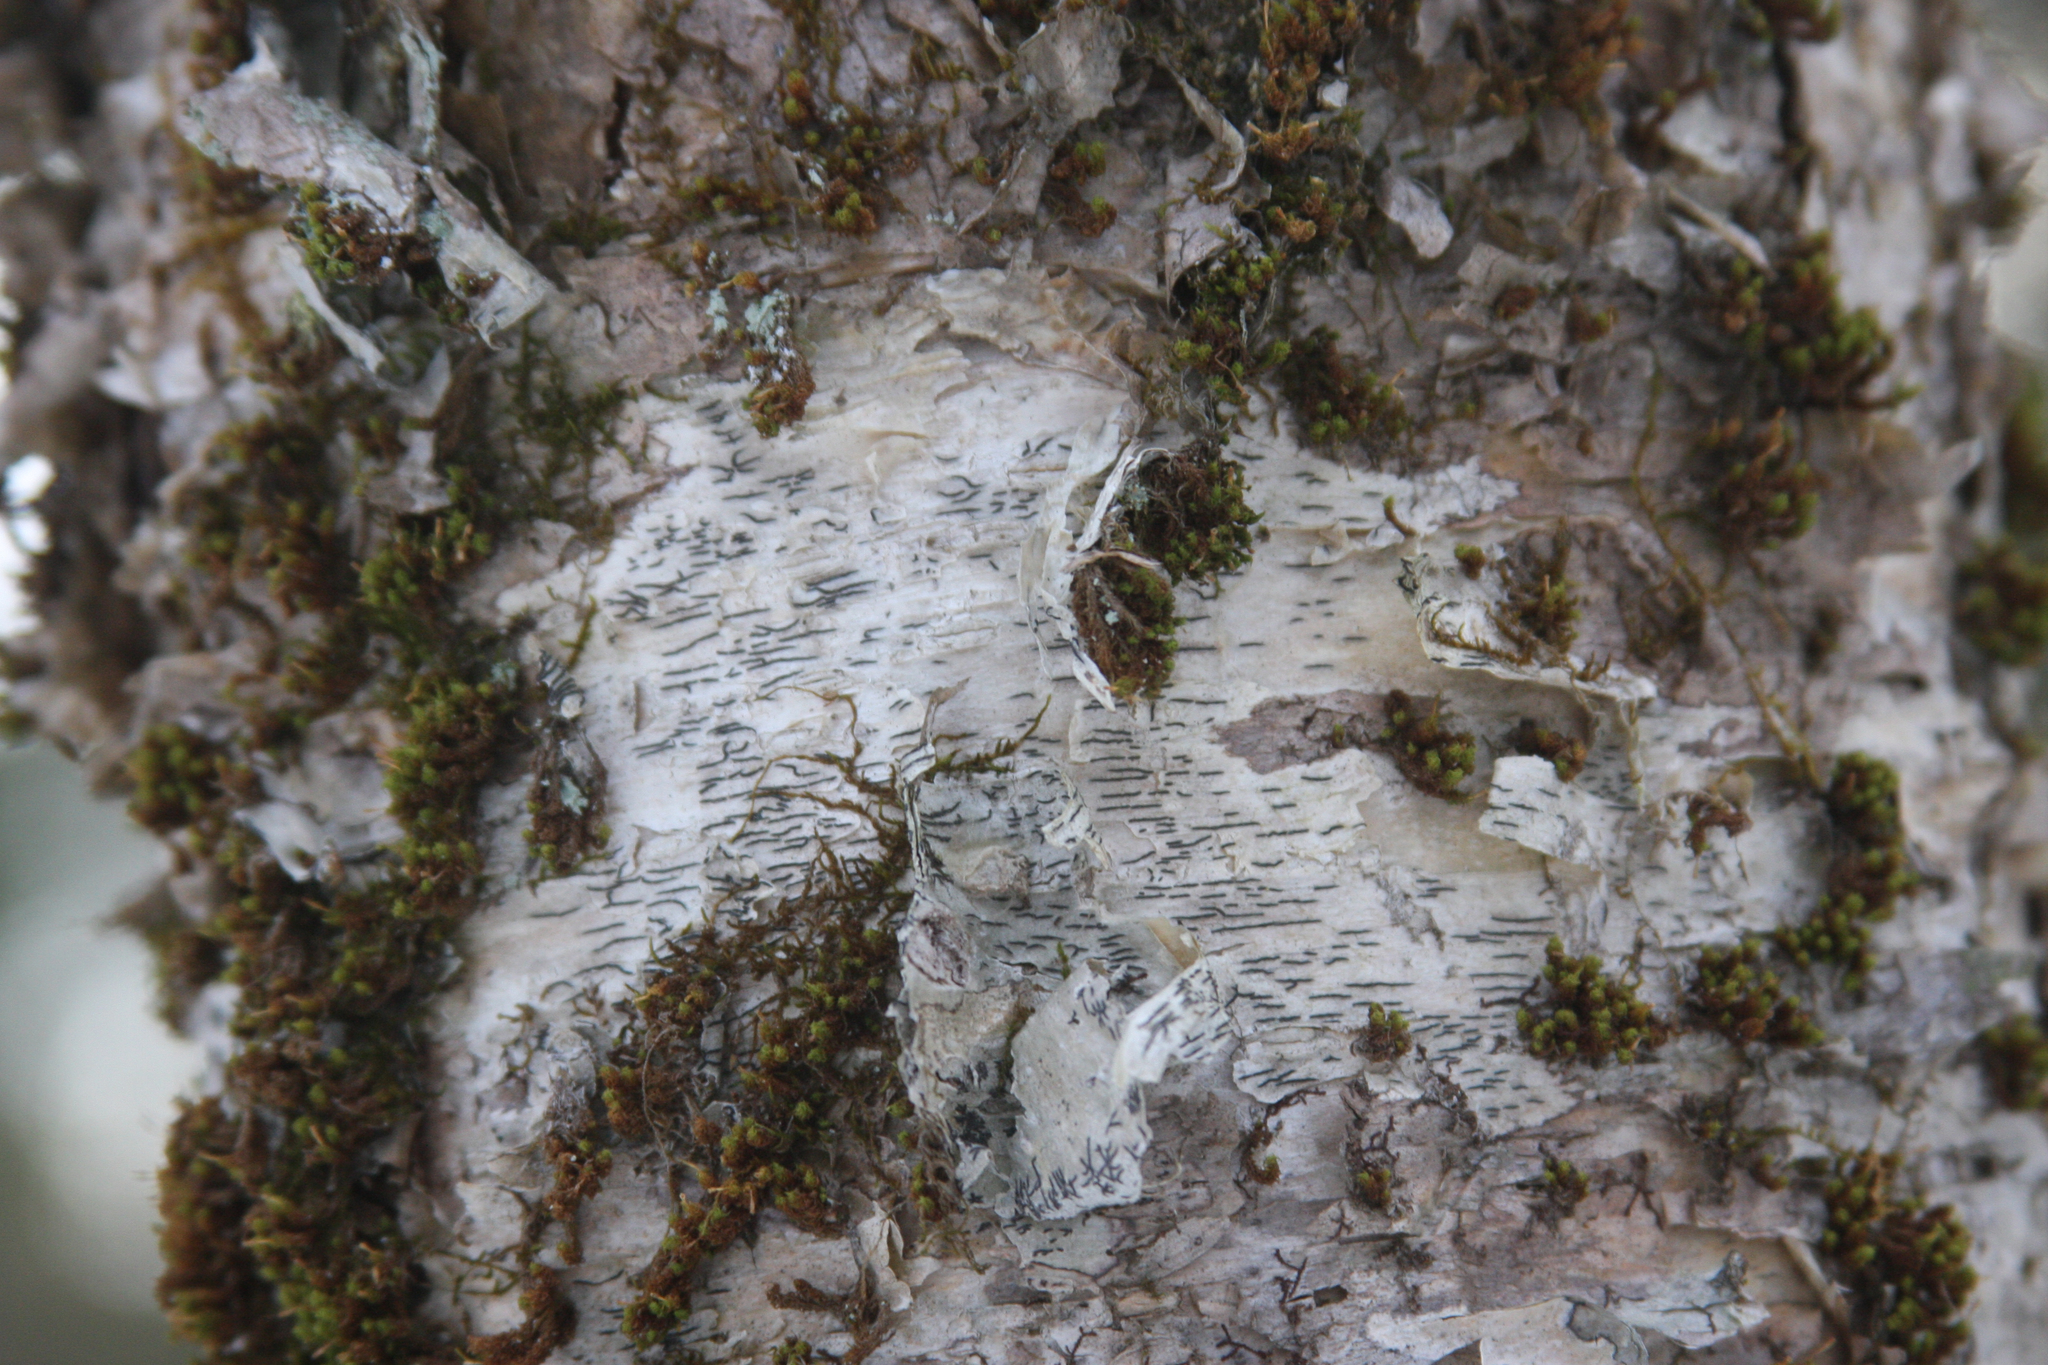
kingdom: Plantae
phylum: Bryophyta
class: Bryopsida
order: Orthotrichales
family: Orthotrichaceae
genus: Ulota
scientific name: Ulota crispa
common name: Crisped pincushion moss
